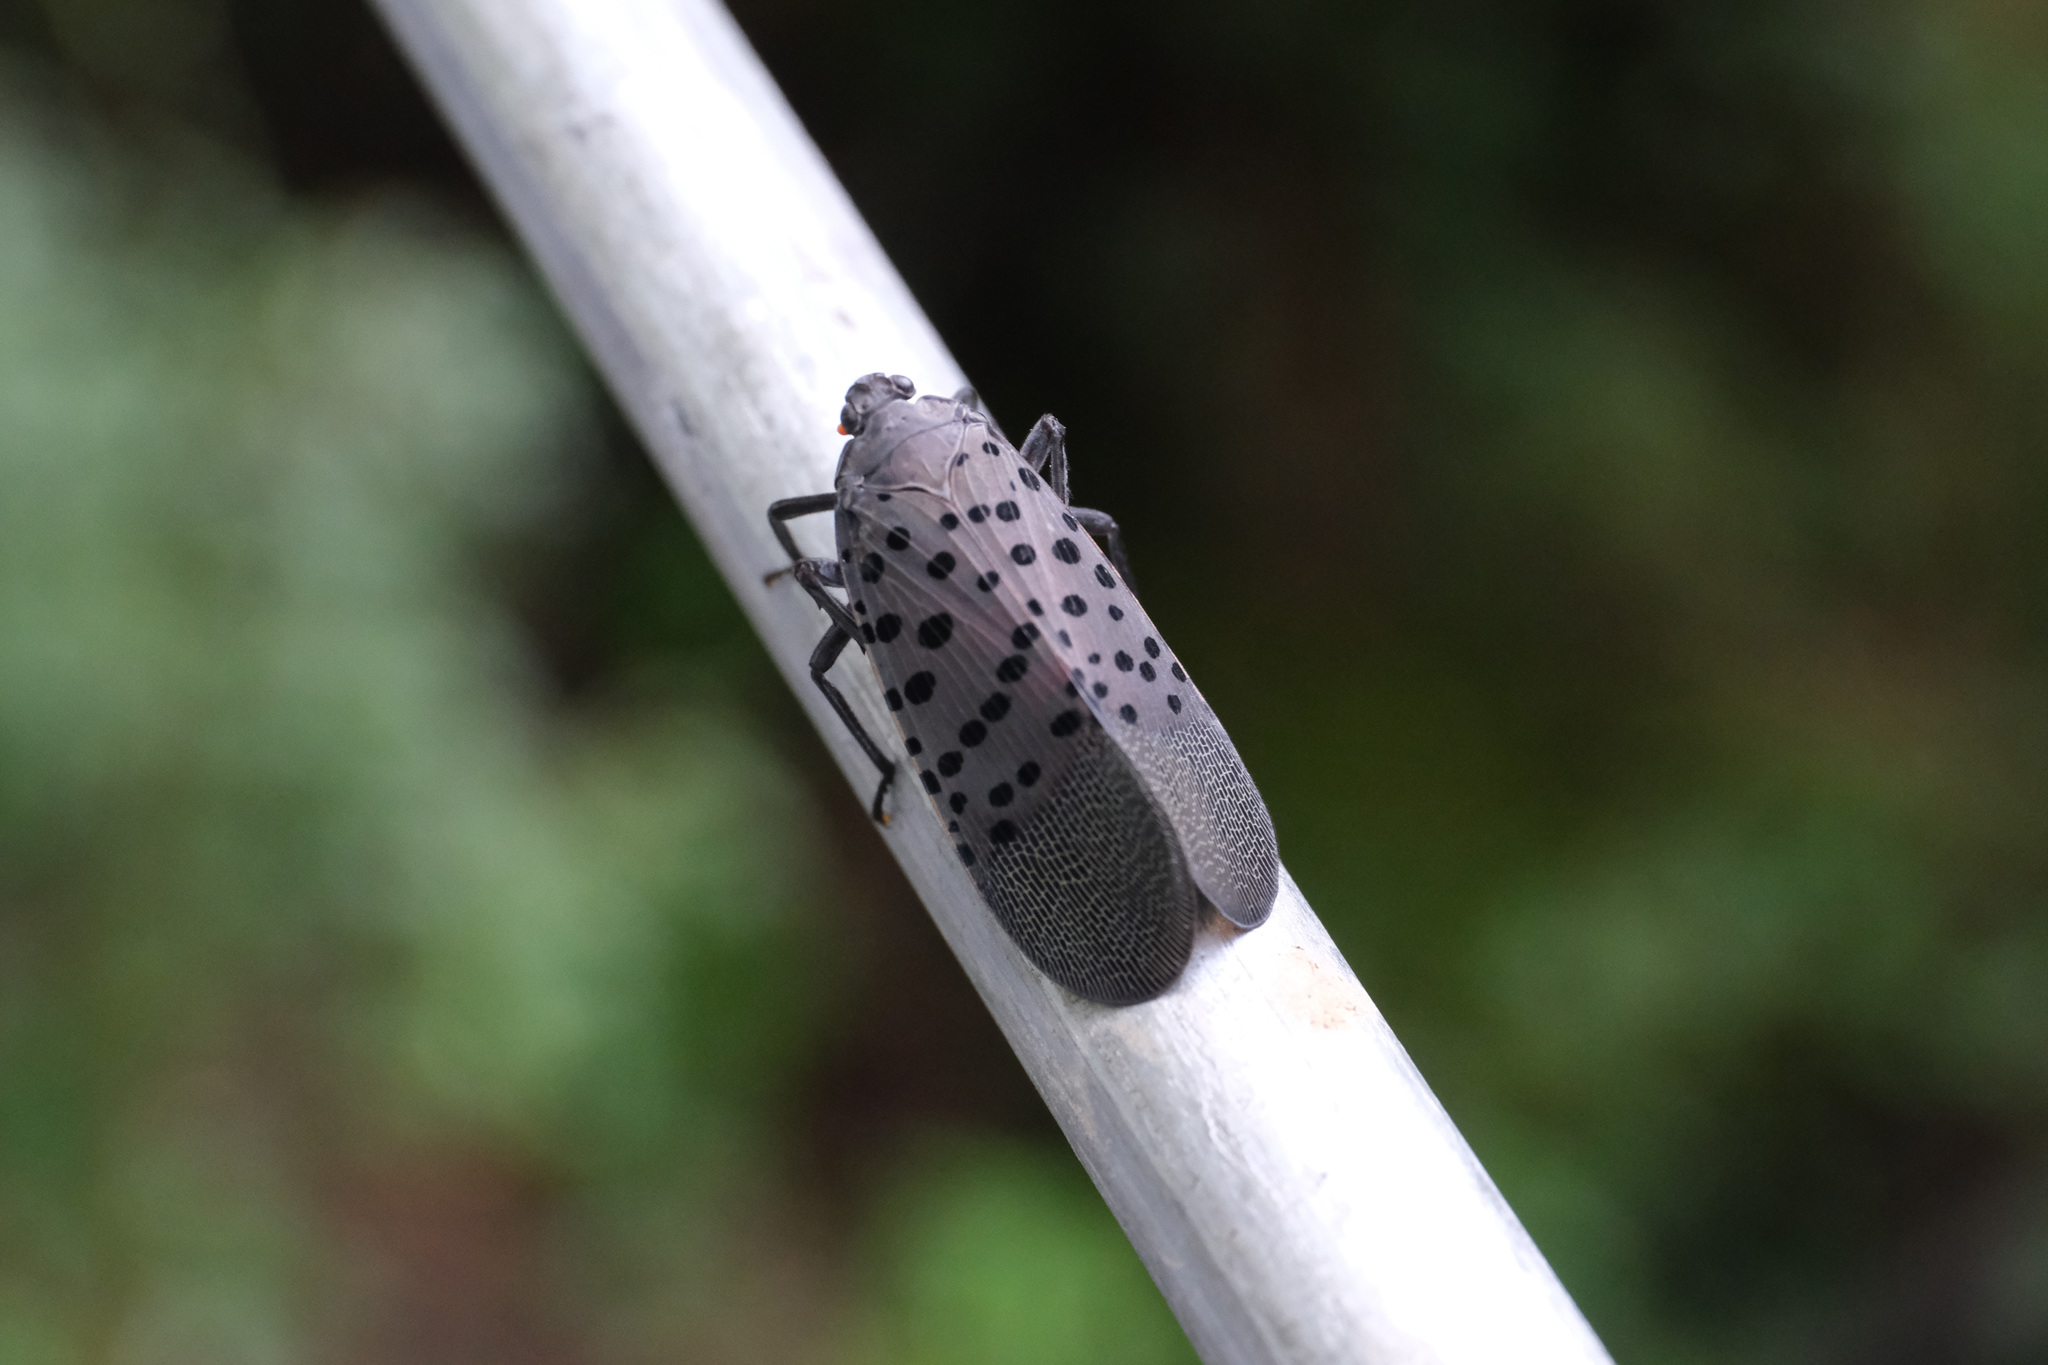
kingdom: Animalia
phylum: Arthropoda
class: Insecta
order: Hemiptera
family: Fulgoridae
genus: Lycorma
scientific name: Lycorma delicatula
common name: Spotted lanternfly
